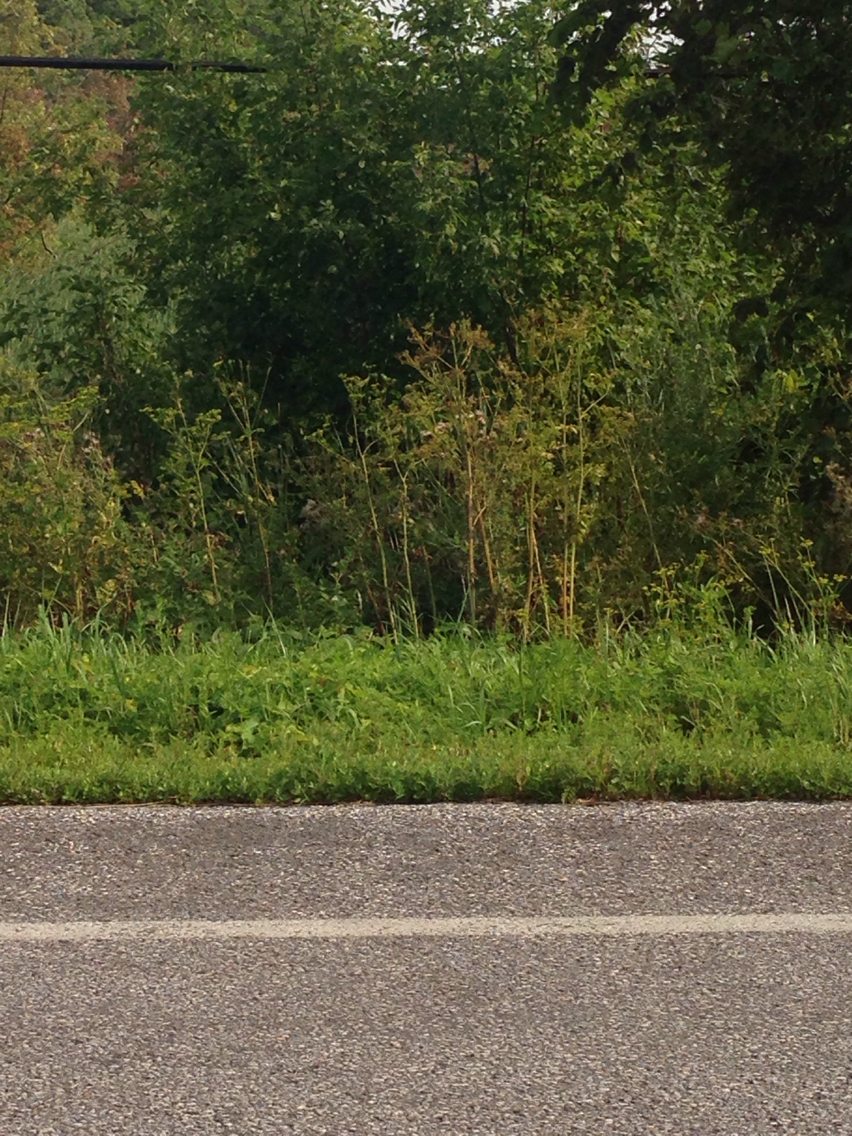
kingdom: Plantae
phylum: Tracheophyta
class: Magnoliopsida
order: Apiales
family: Apiaceae
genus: Pastinaca
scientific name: Pastinaca sativa
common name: Wild parsnip
